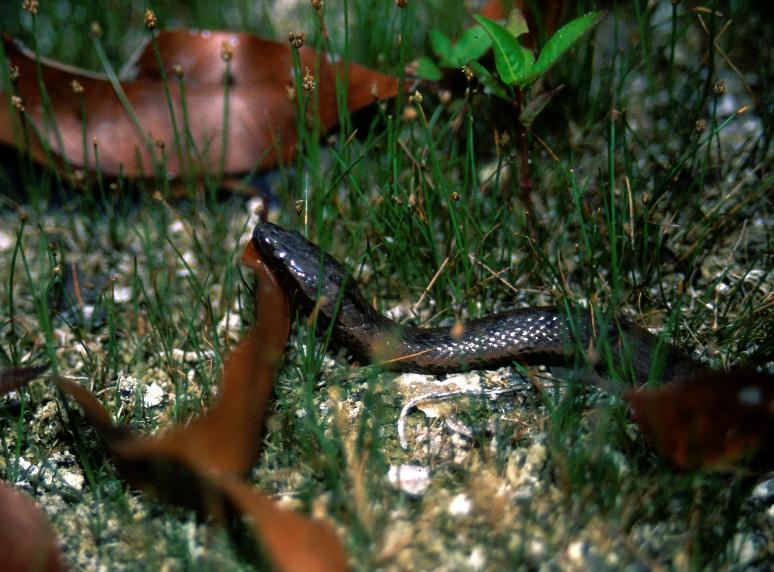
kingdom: Animalia
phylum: Chordata
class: Squamata
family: Colubridae
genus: Tretanorhinus
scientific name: Tretanorhinus nigroluteus
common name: Orangebelly swamp snake
